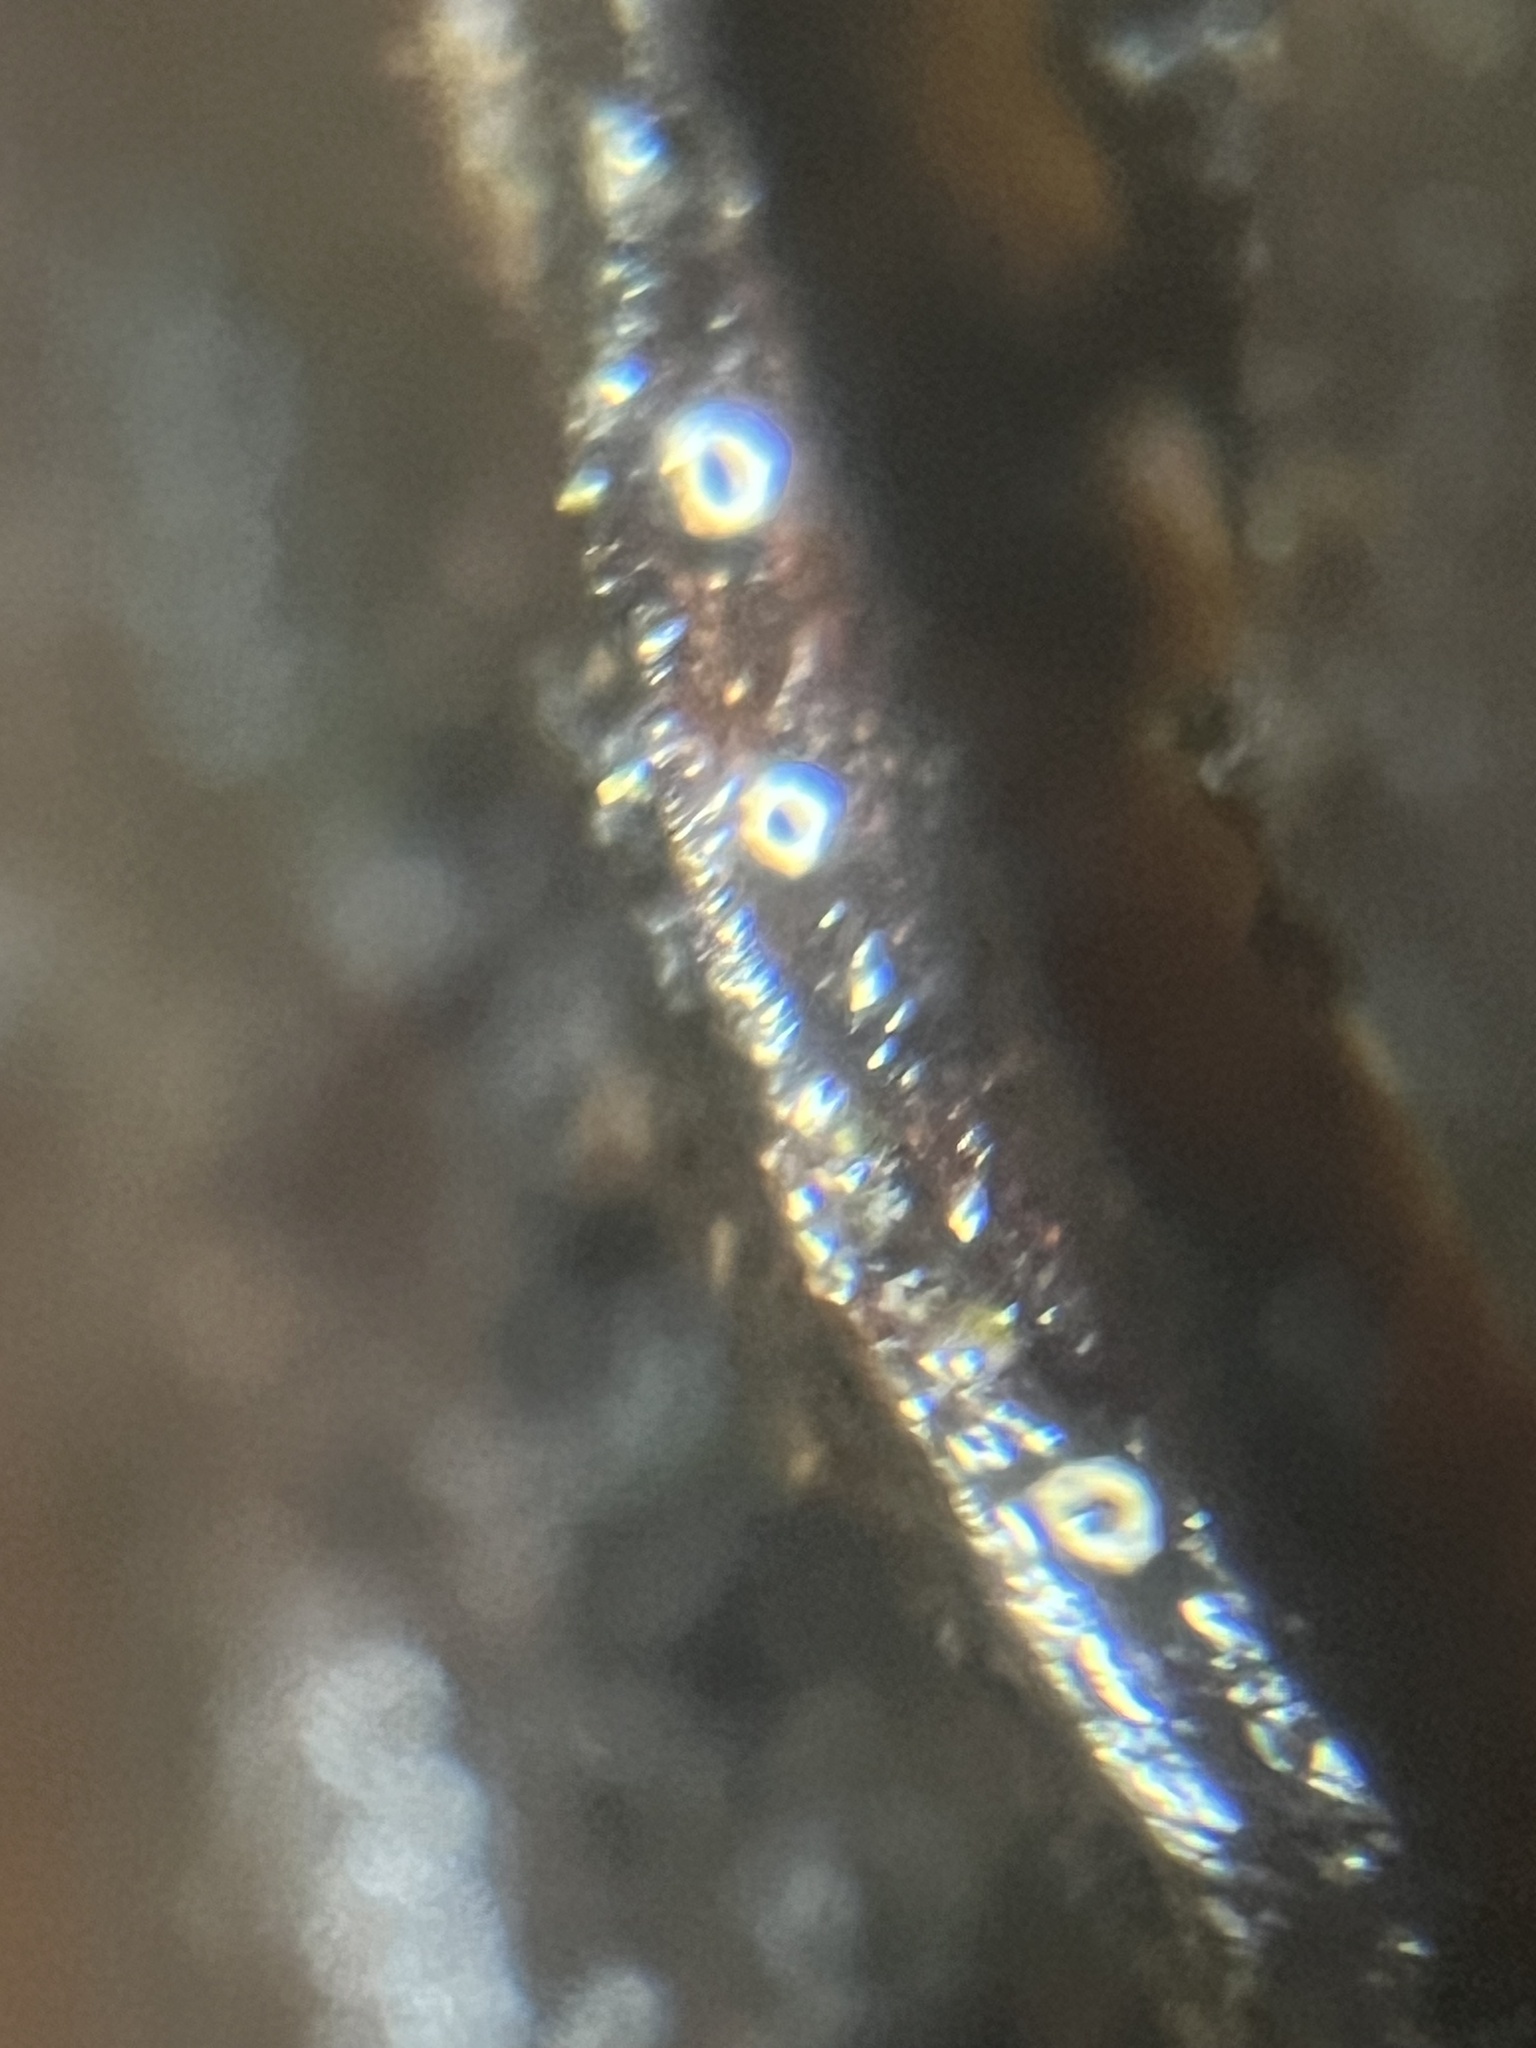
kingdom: Fungi
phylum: Ascomycota
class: Lecanoromycetes
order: Ostropales
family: Stictidaceae
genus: Stictis
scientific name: Stictis radiata
